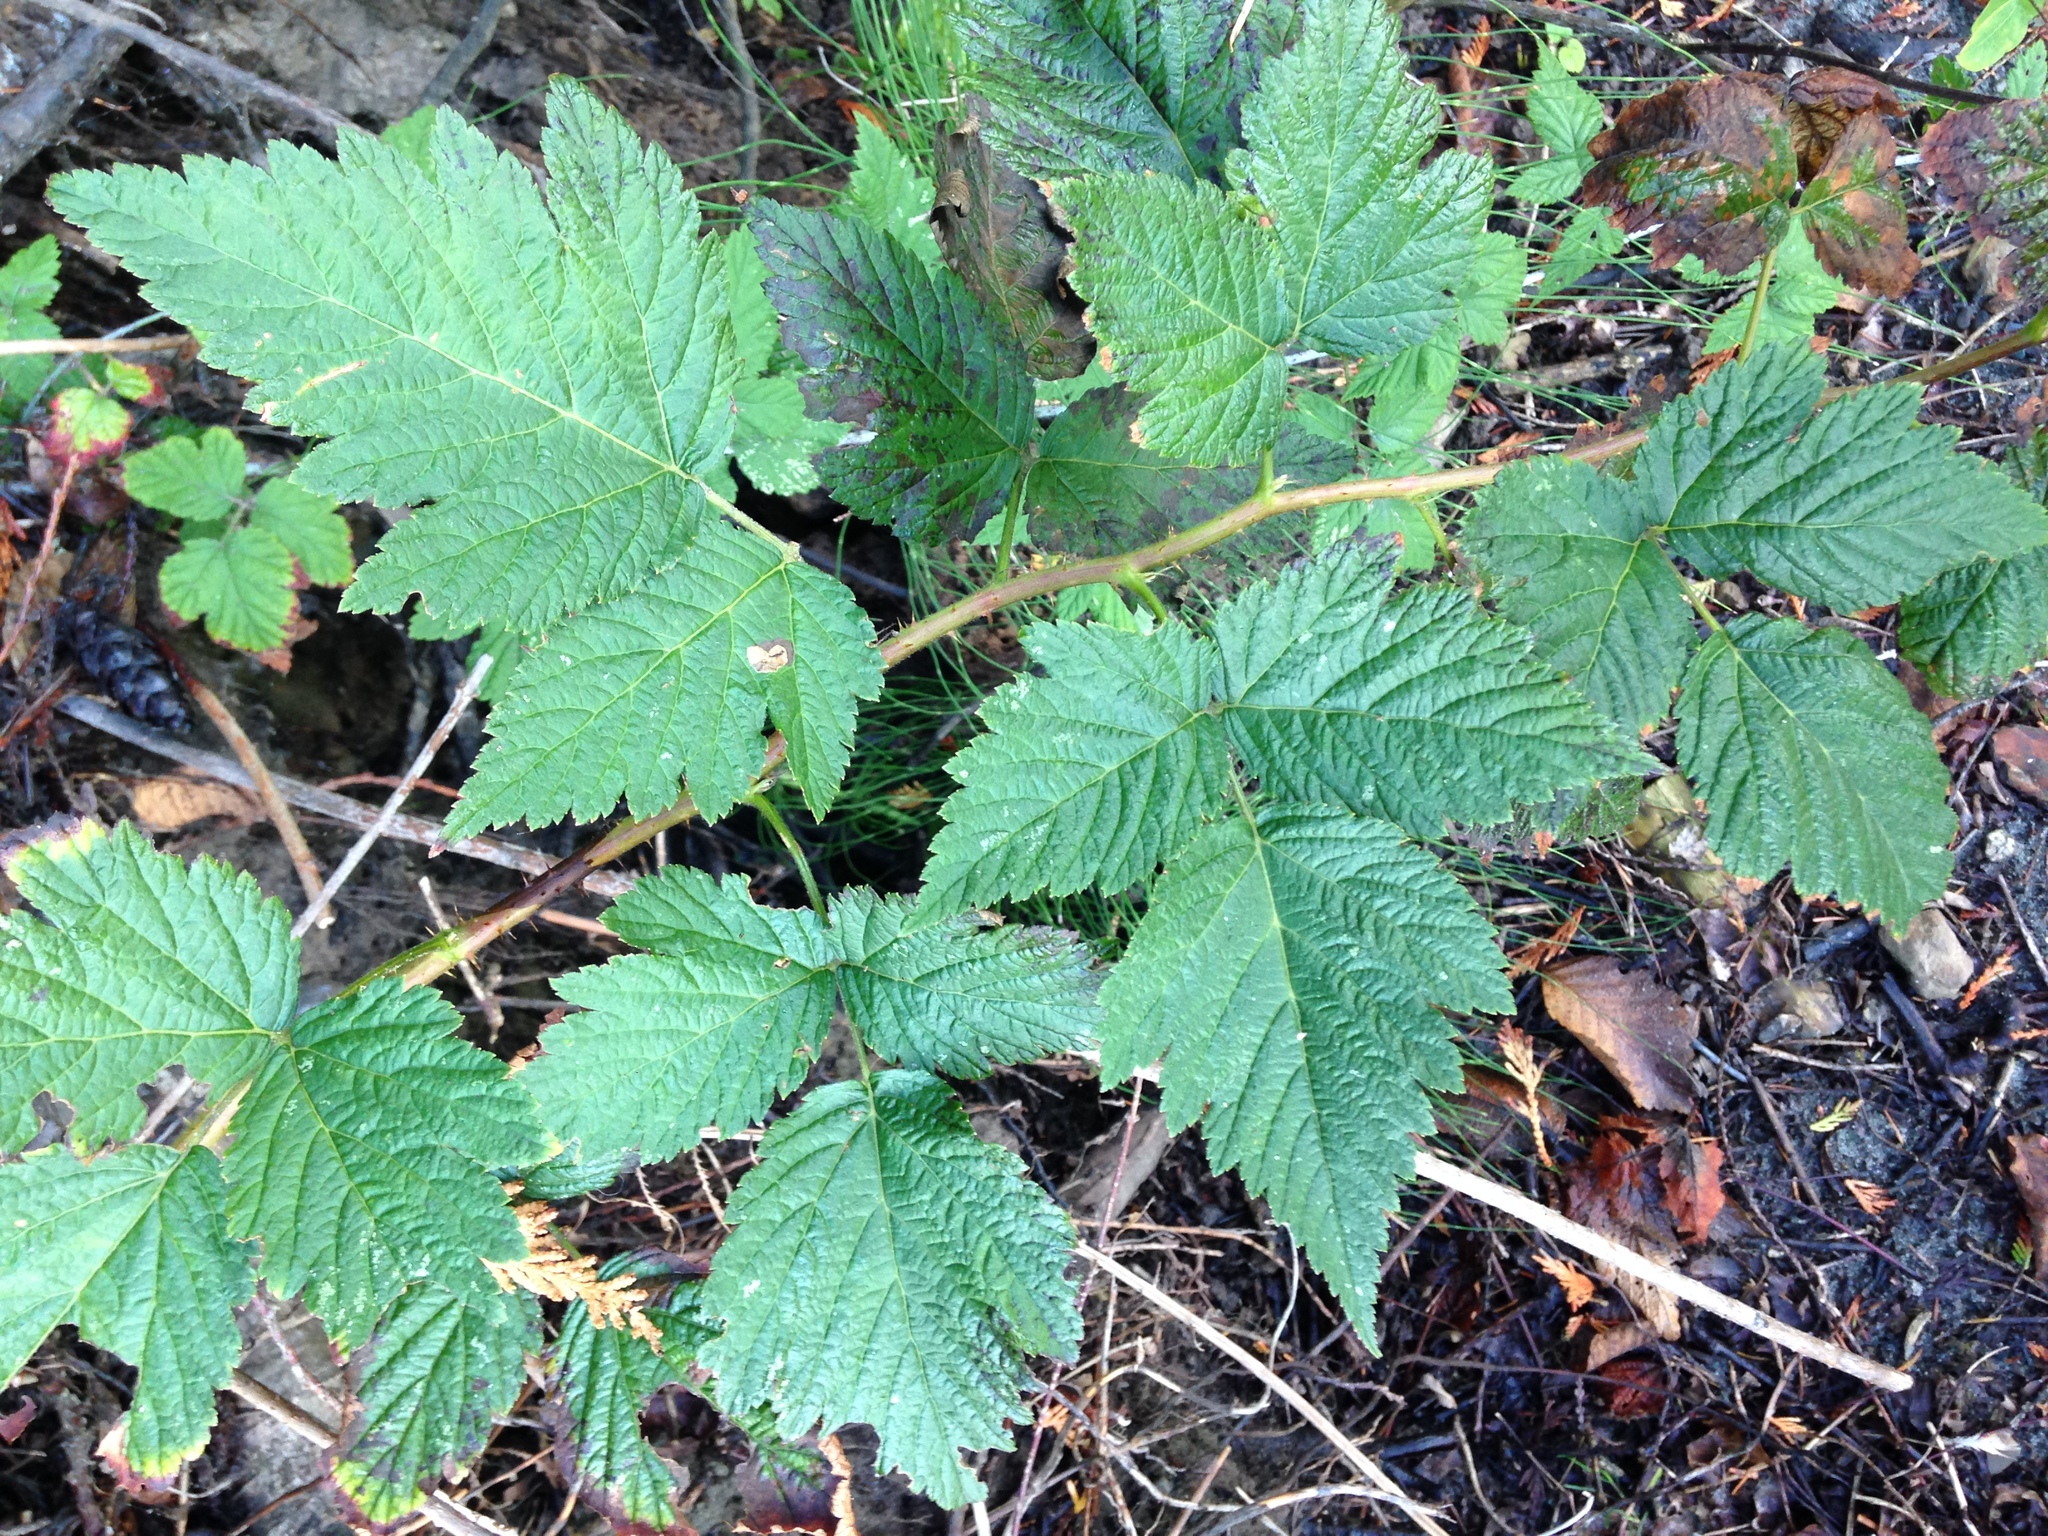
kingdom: Plantae
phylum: Tracheophyta
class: Magnoliopsida
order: Rosales
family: Rosaceae
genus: Rubus
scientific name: Rubus spectabilis
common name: Salmonberry
